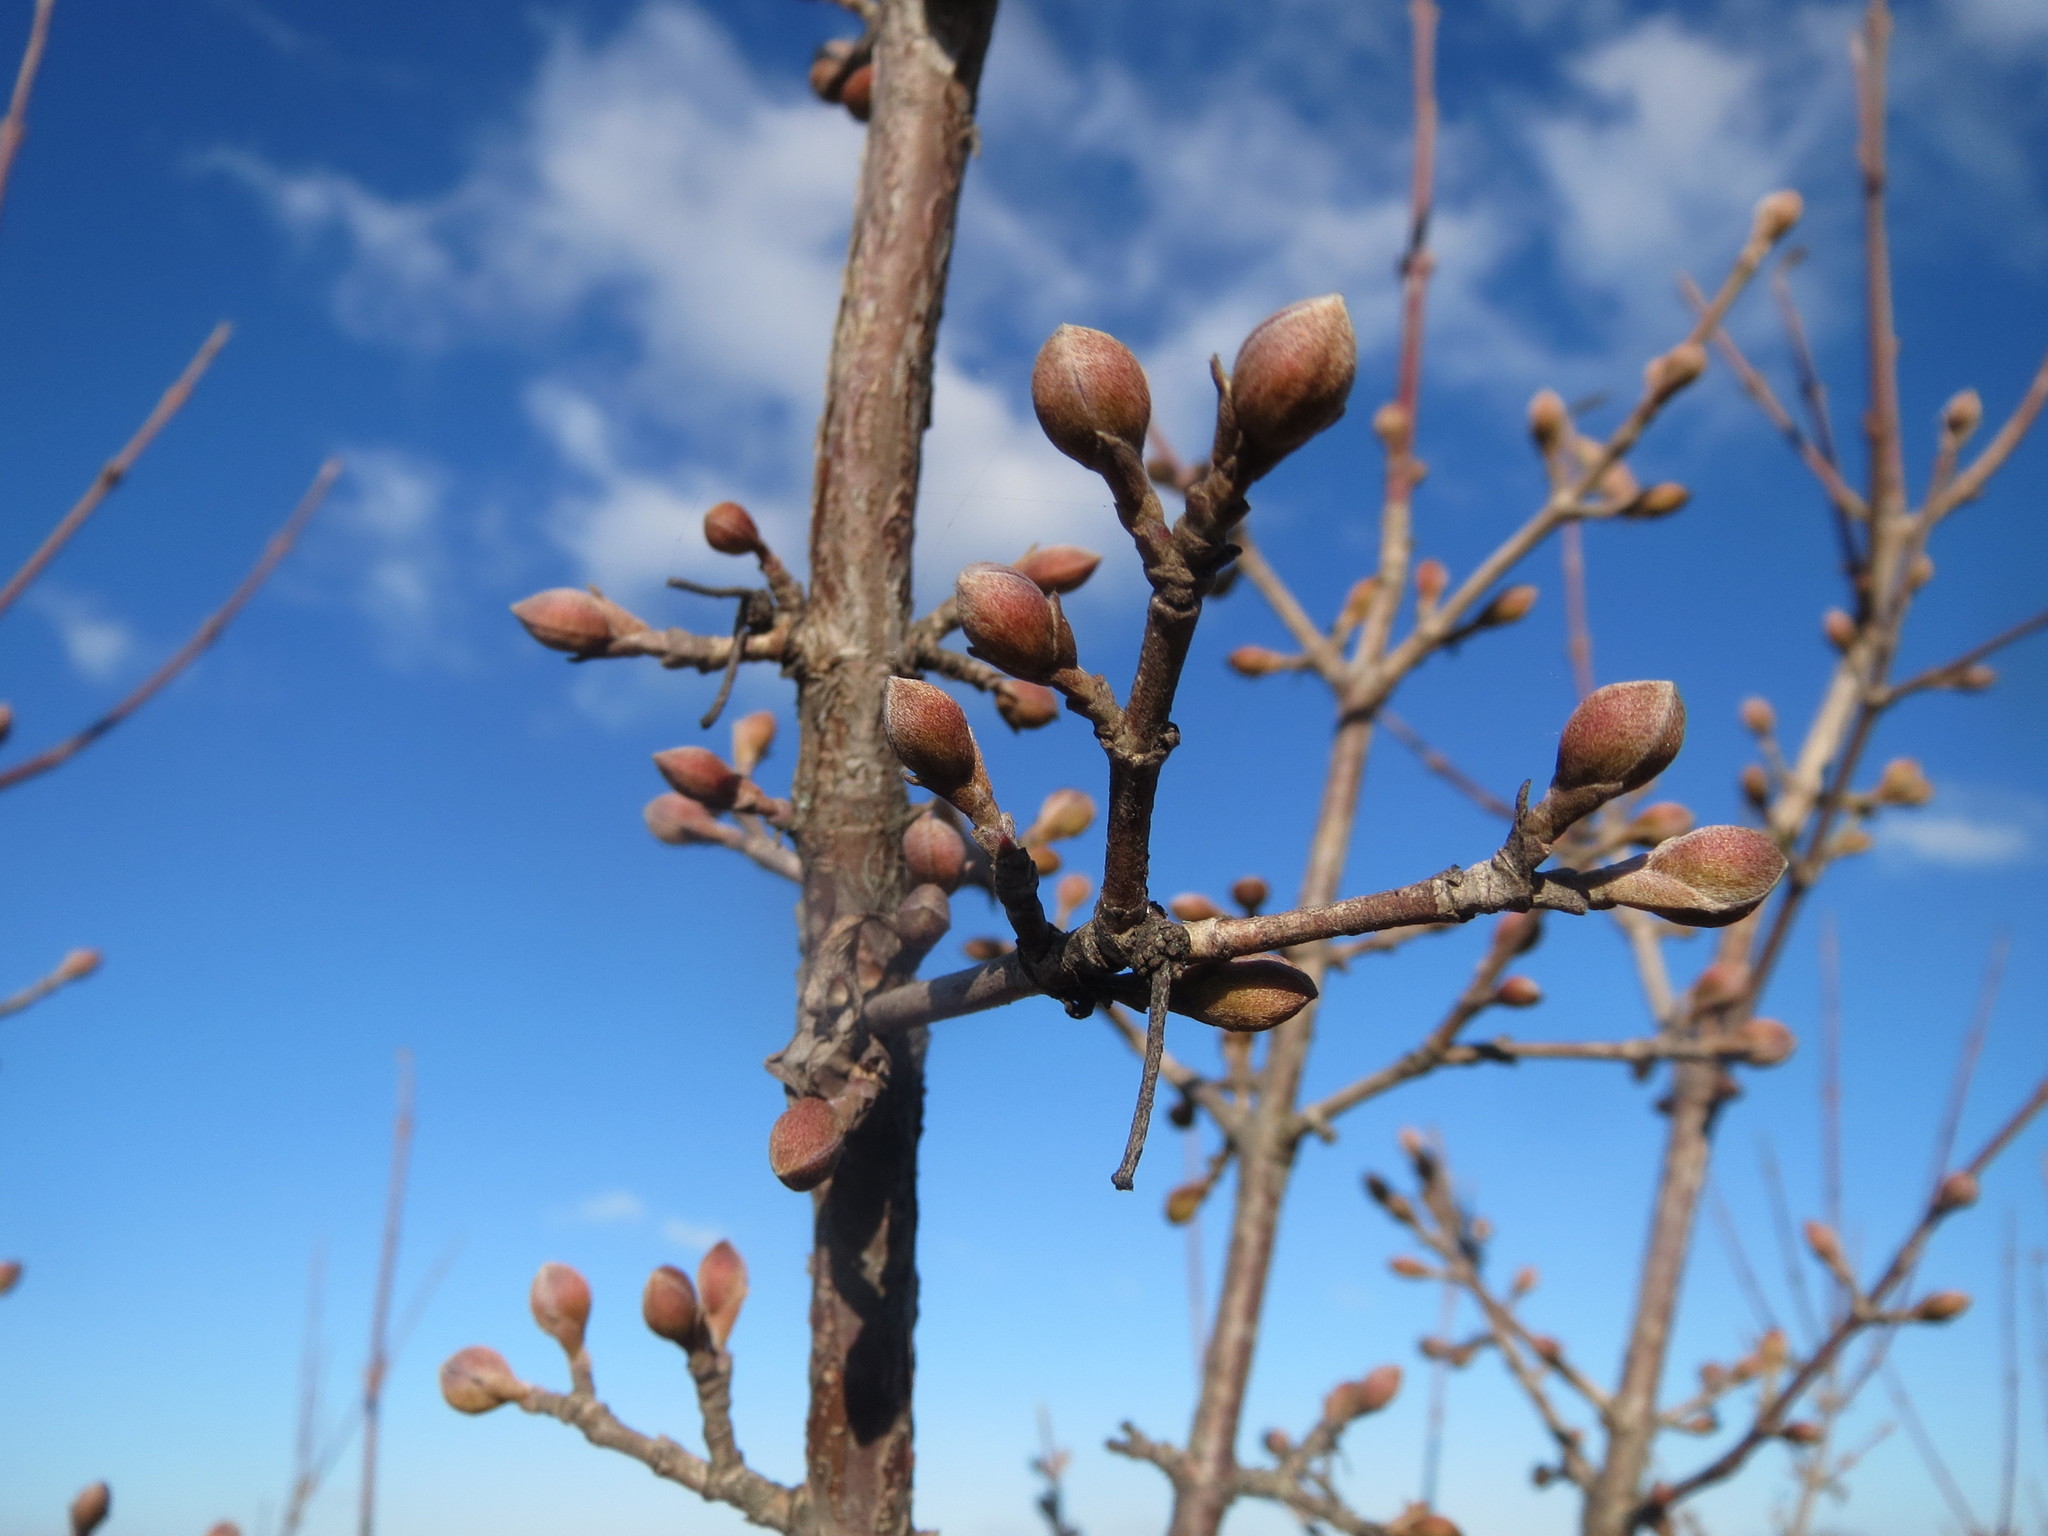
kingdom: Plantae
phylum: Tracheophyta
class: Magnoliopsida
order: Cornales
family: Cornaceae
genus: Cornus
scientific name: Cornus mas
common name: Cornelian-cherry
